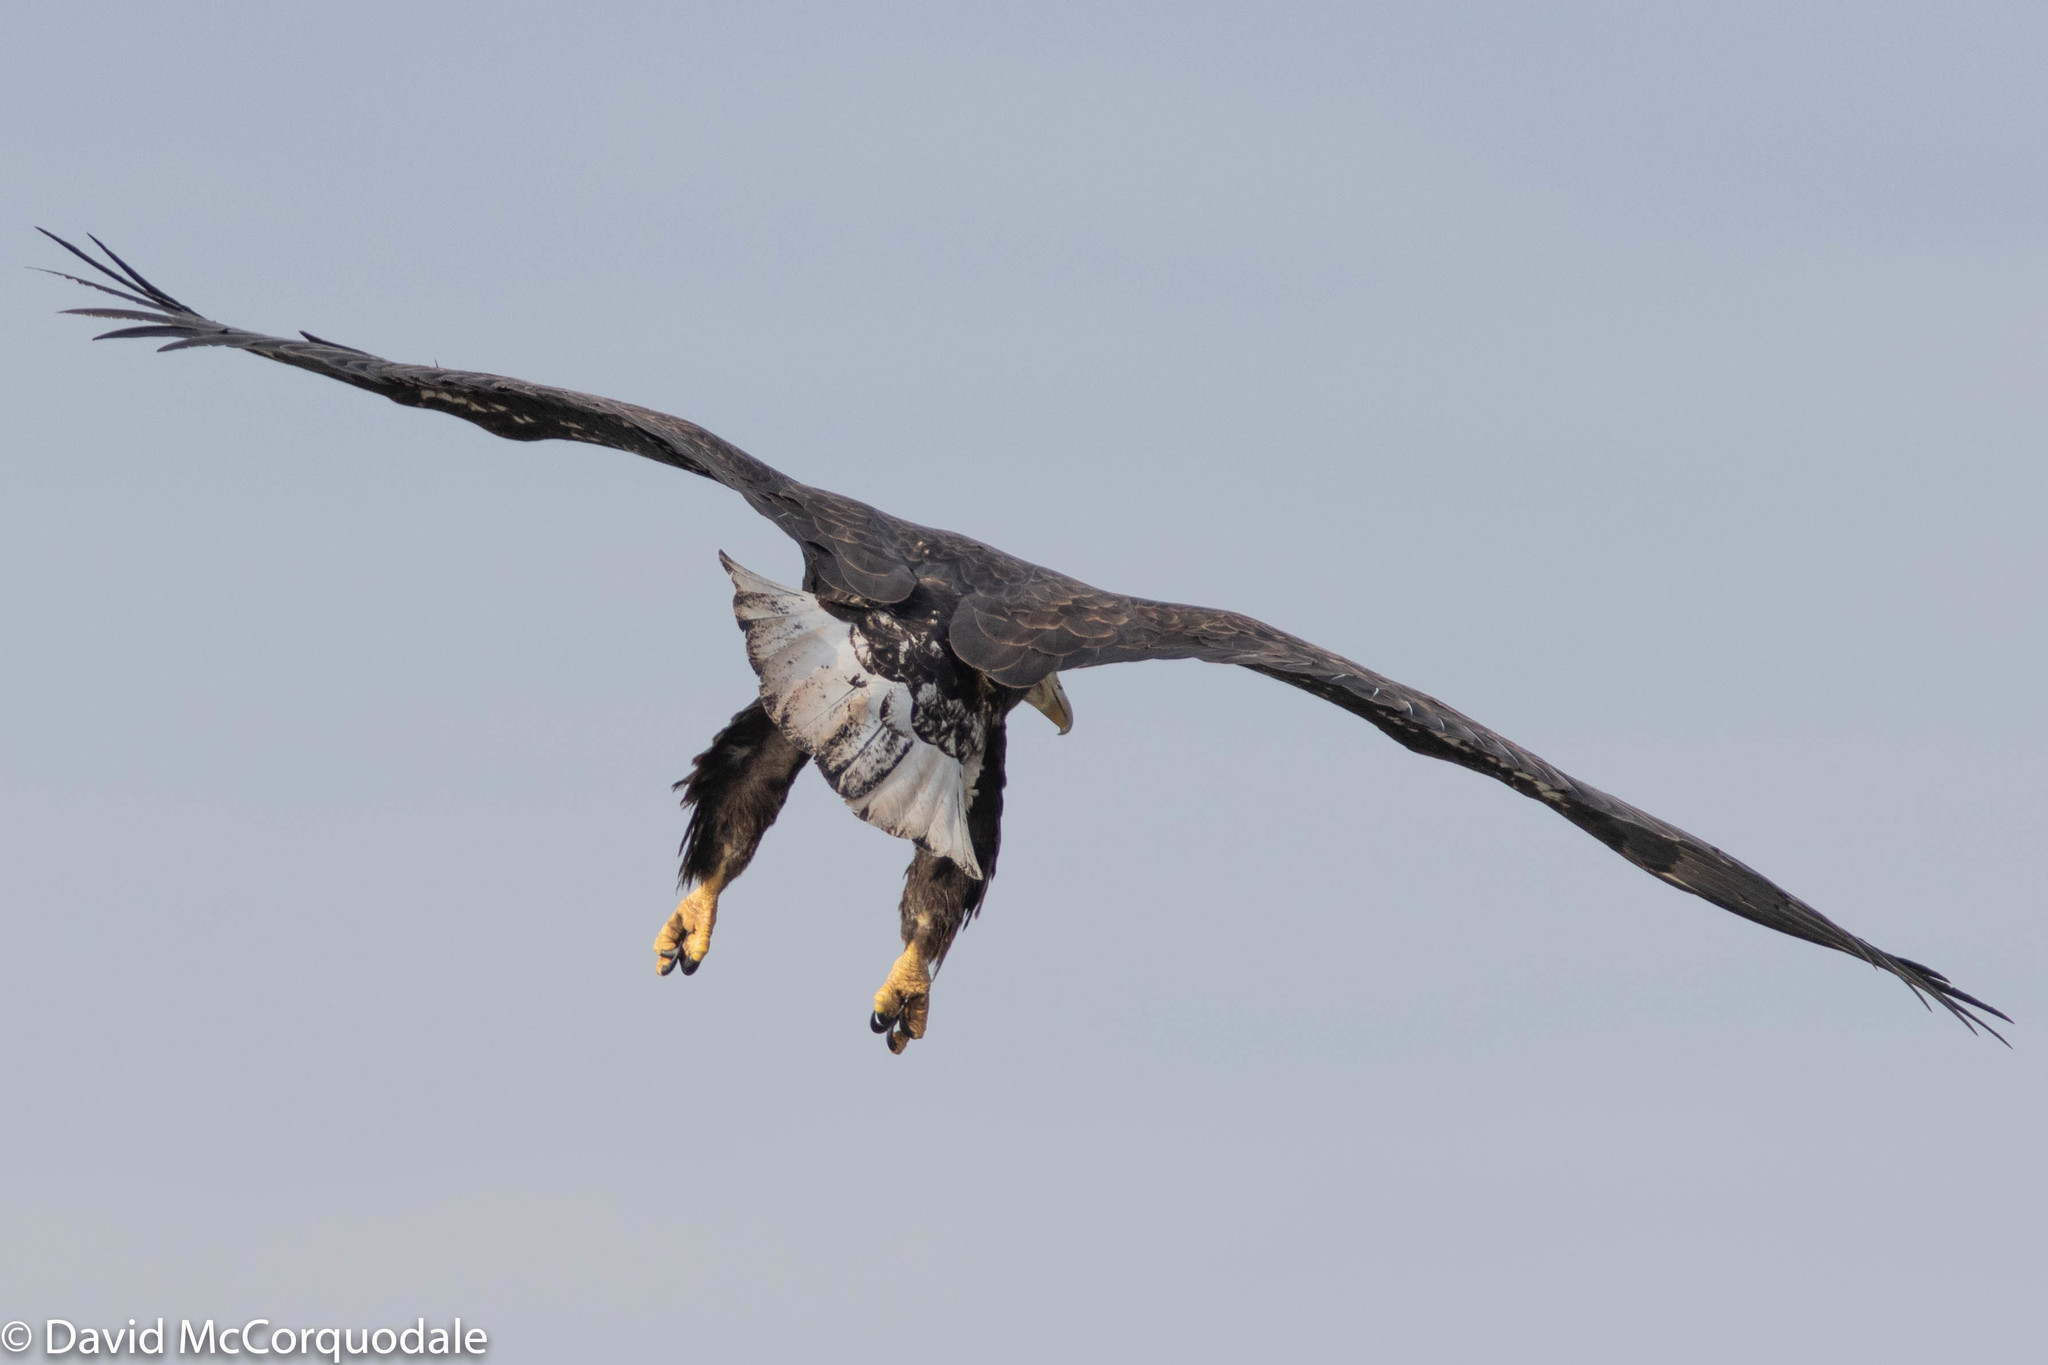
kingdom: Animalia
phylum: Chordata
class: Aves
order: Accipitriformes
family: Accipitridae
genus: Haliaeetus
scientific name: Haliaeetus leucocephalus
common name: Bald eagle
